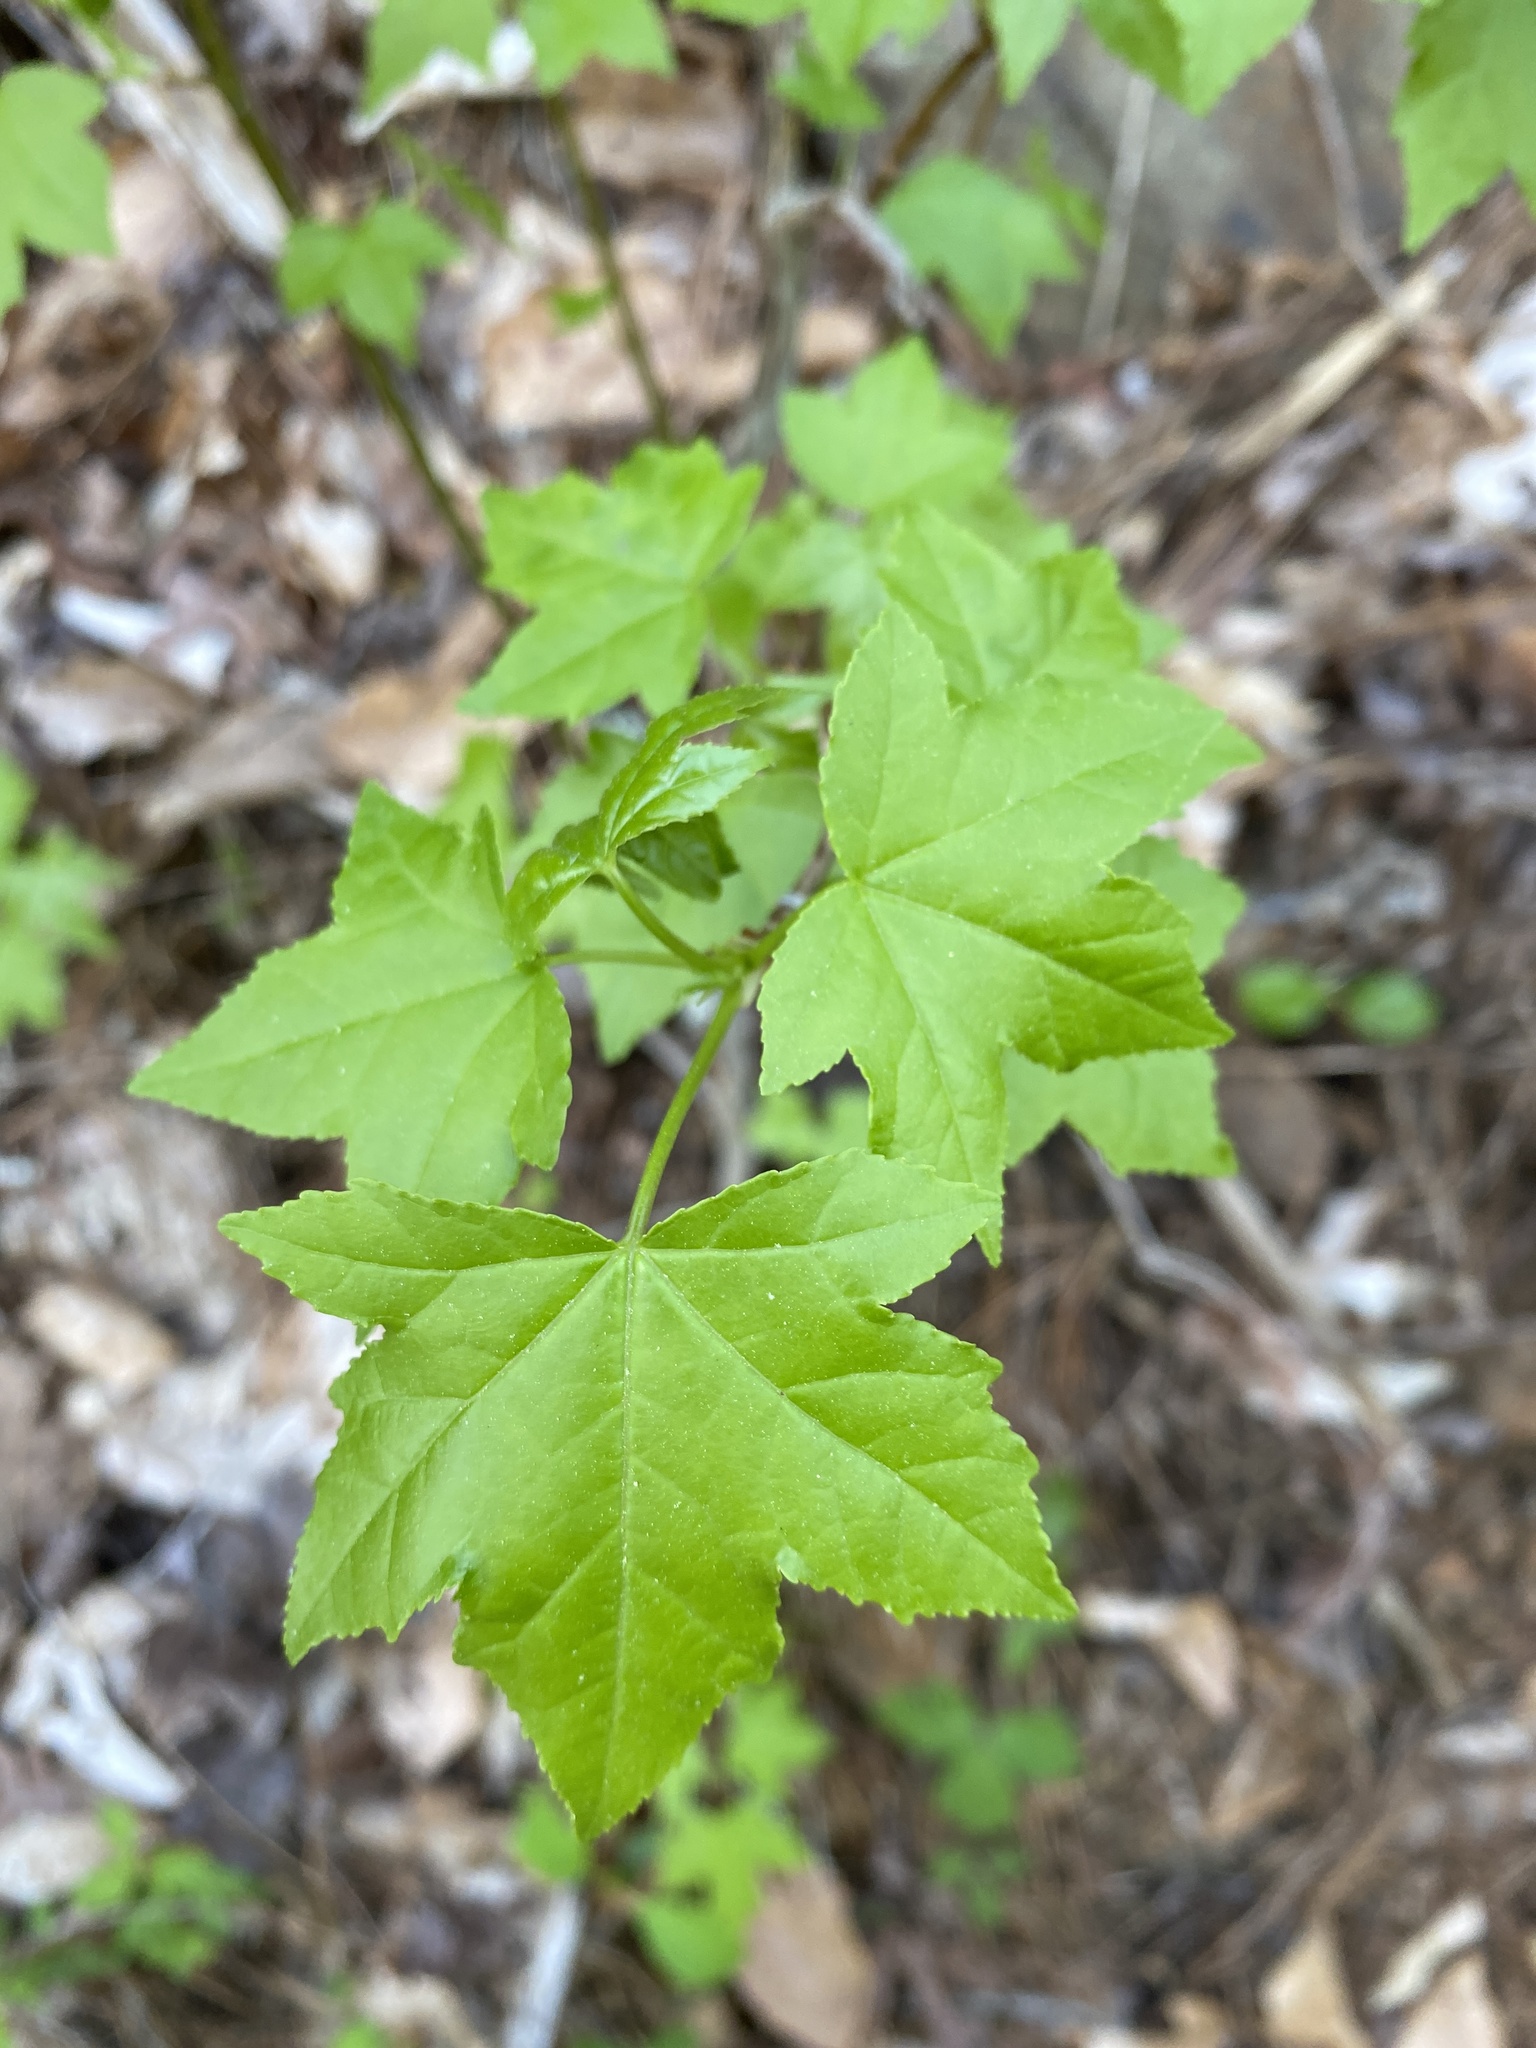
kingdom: Plantae
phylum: Tracheophyta
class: Magnoliopsida
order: Saxifragales
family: Altingiaceae
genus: Liquidambar
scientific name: Liquidambar styraciflua
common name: Sweet gum
